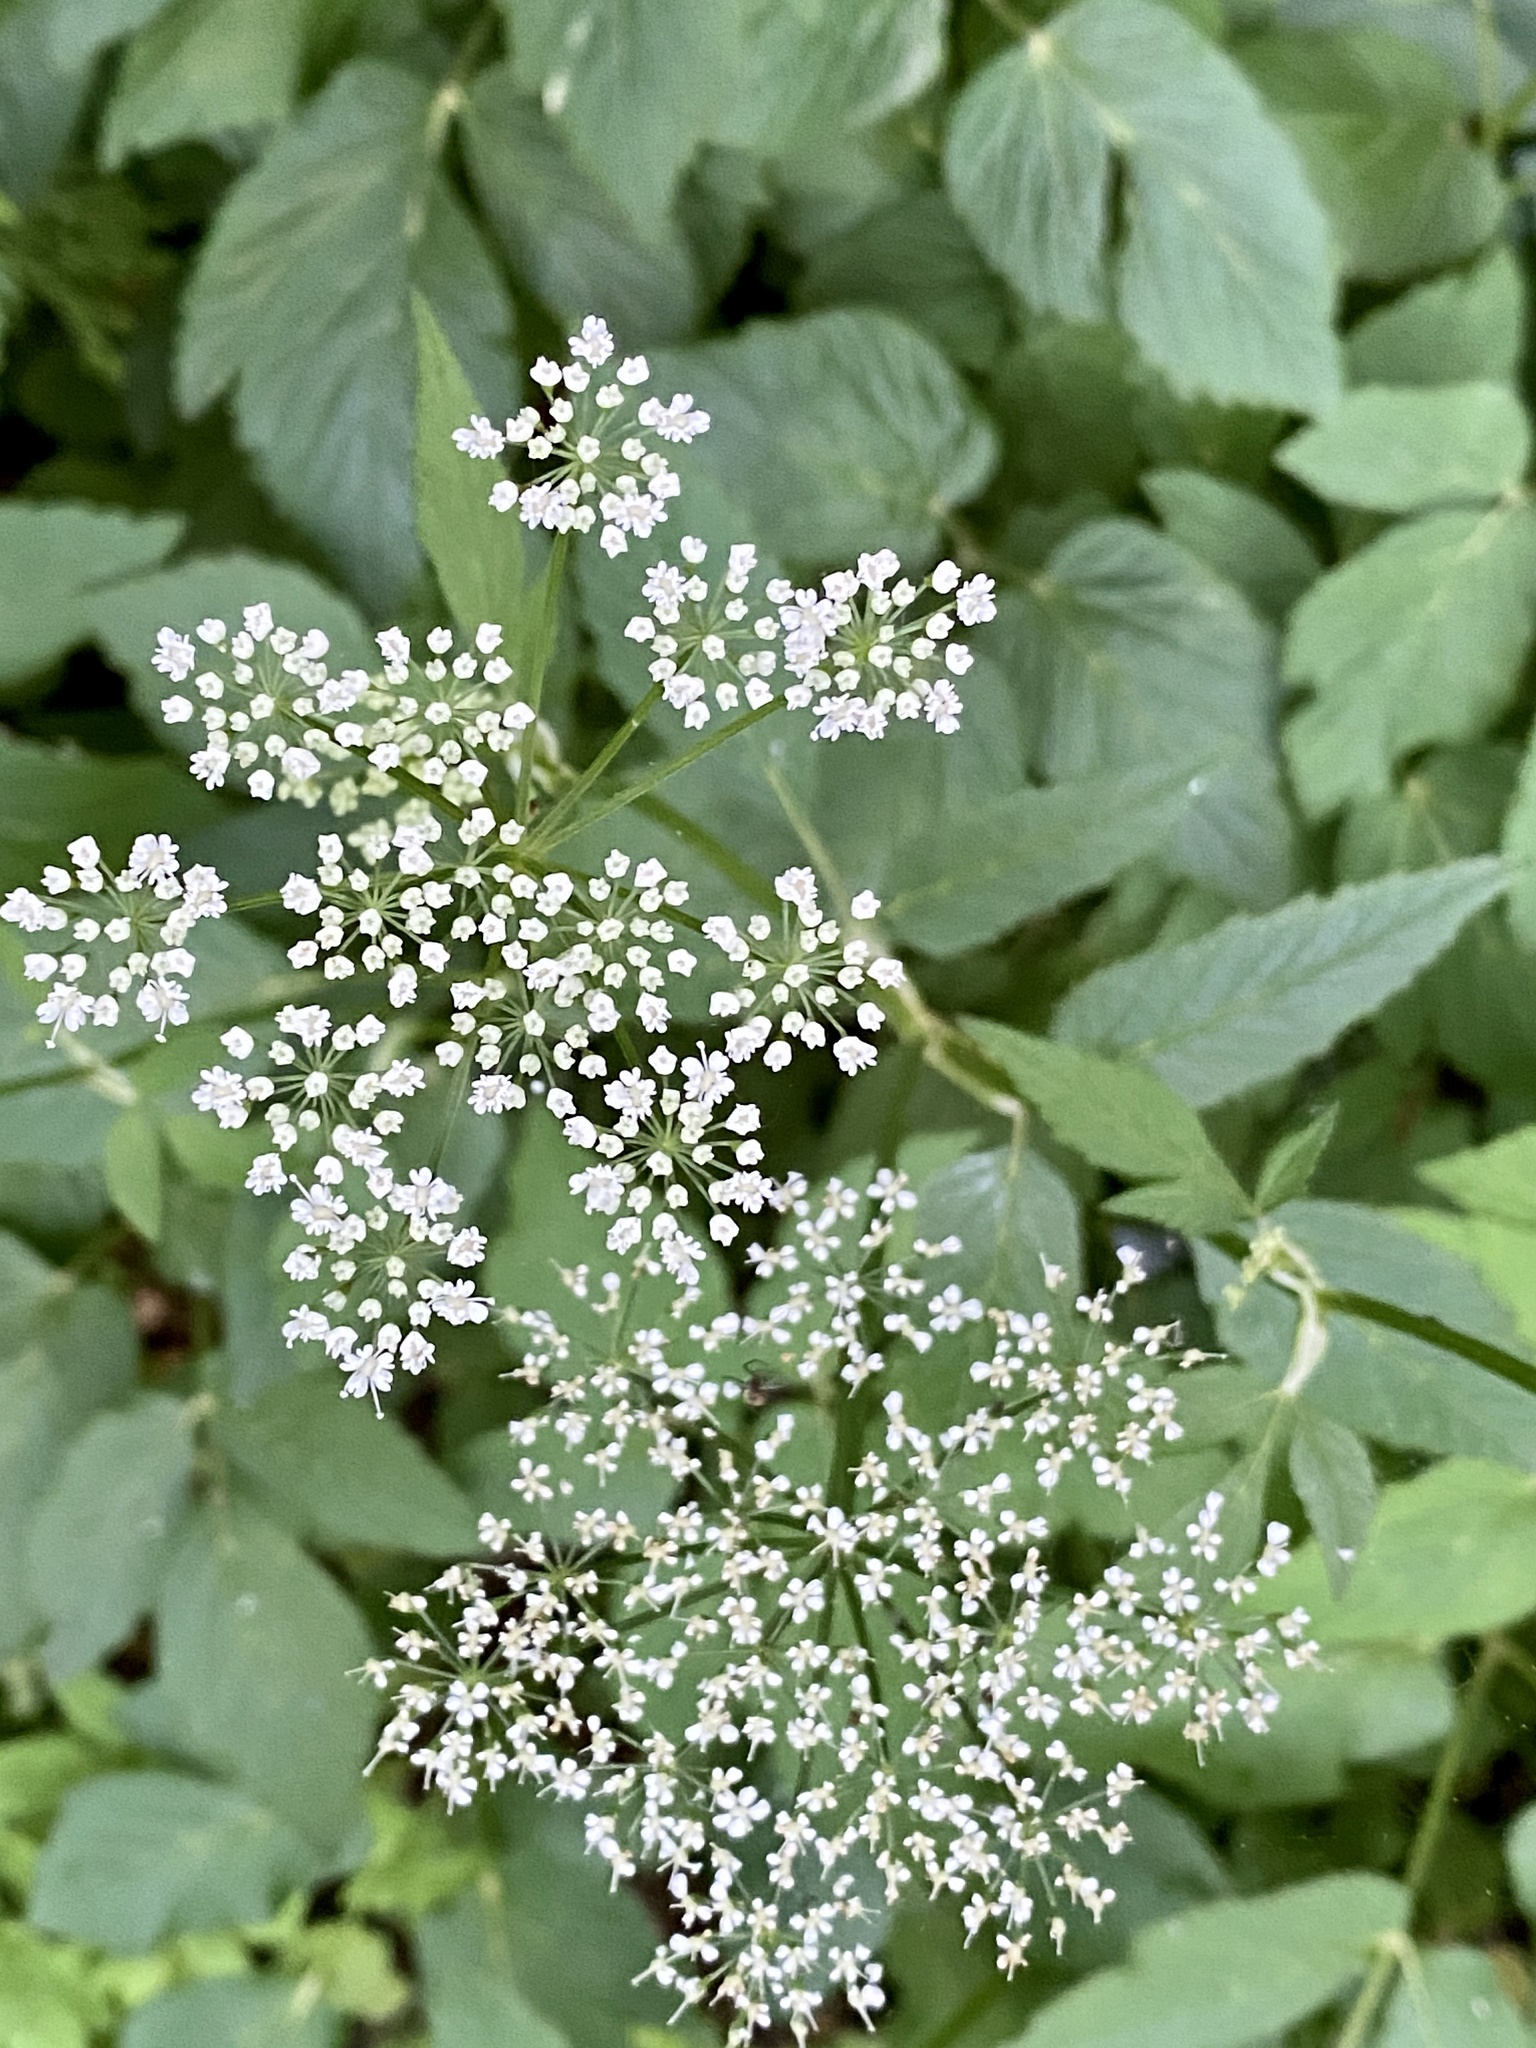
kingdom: Plantae
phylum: Tracheophyta
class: Magnoliopsida
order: Apiales
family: Apiaceae
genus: Aegopodium
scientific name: Aegopodium podagraria
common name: Ground-elder
